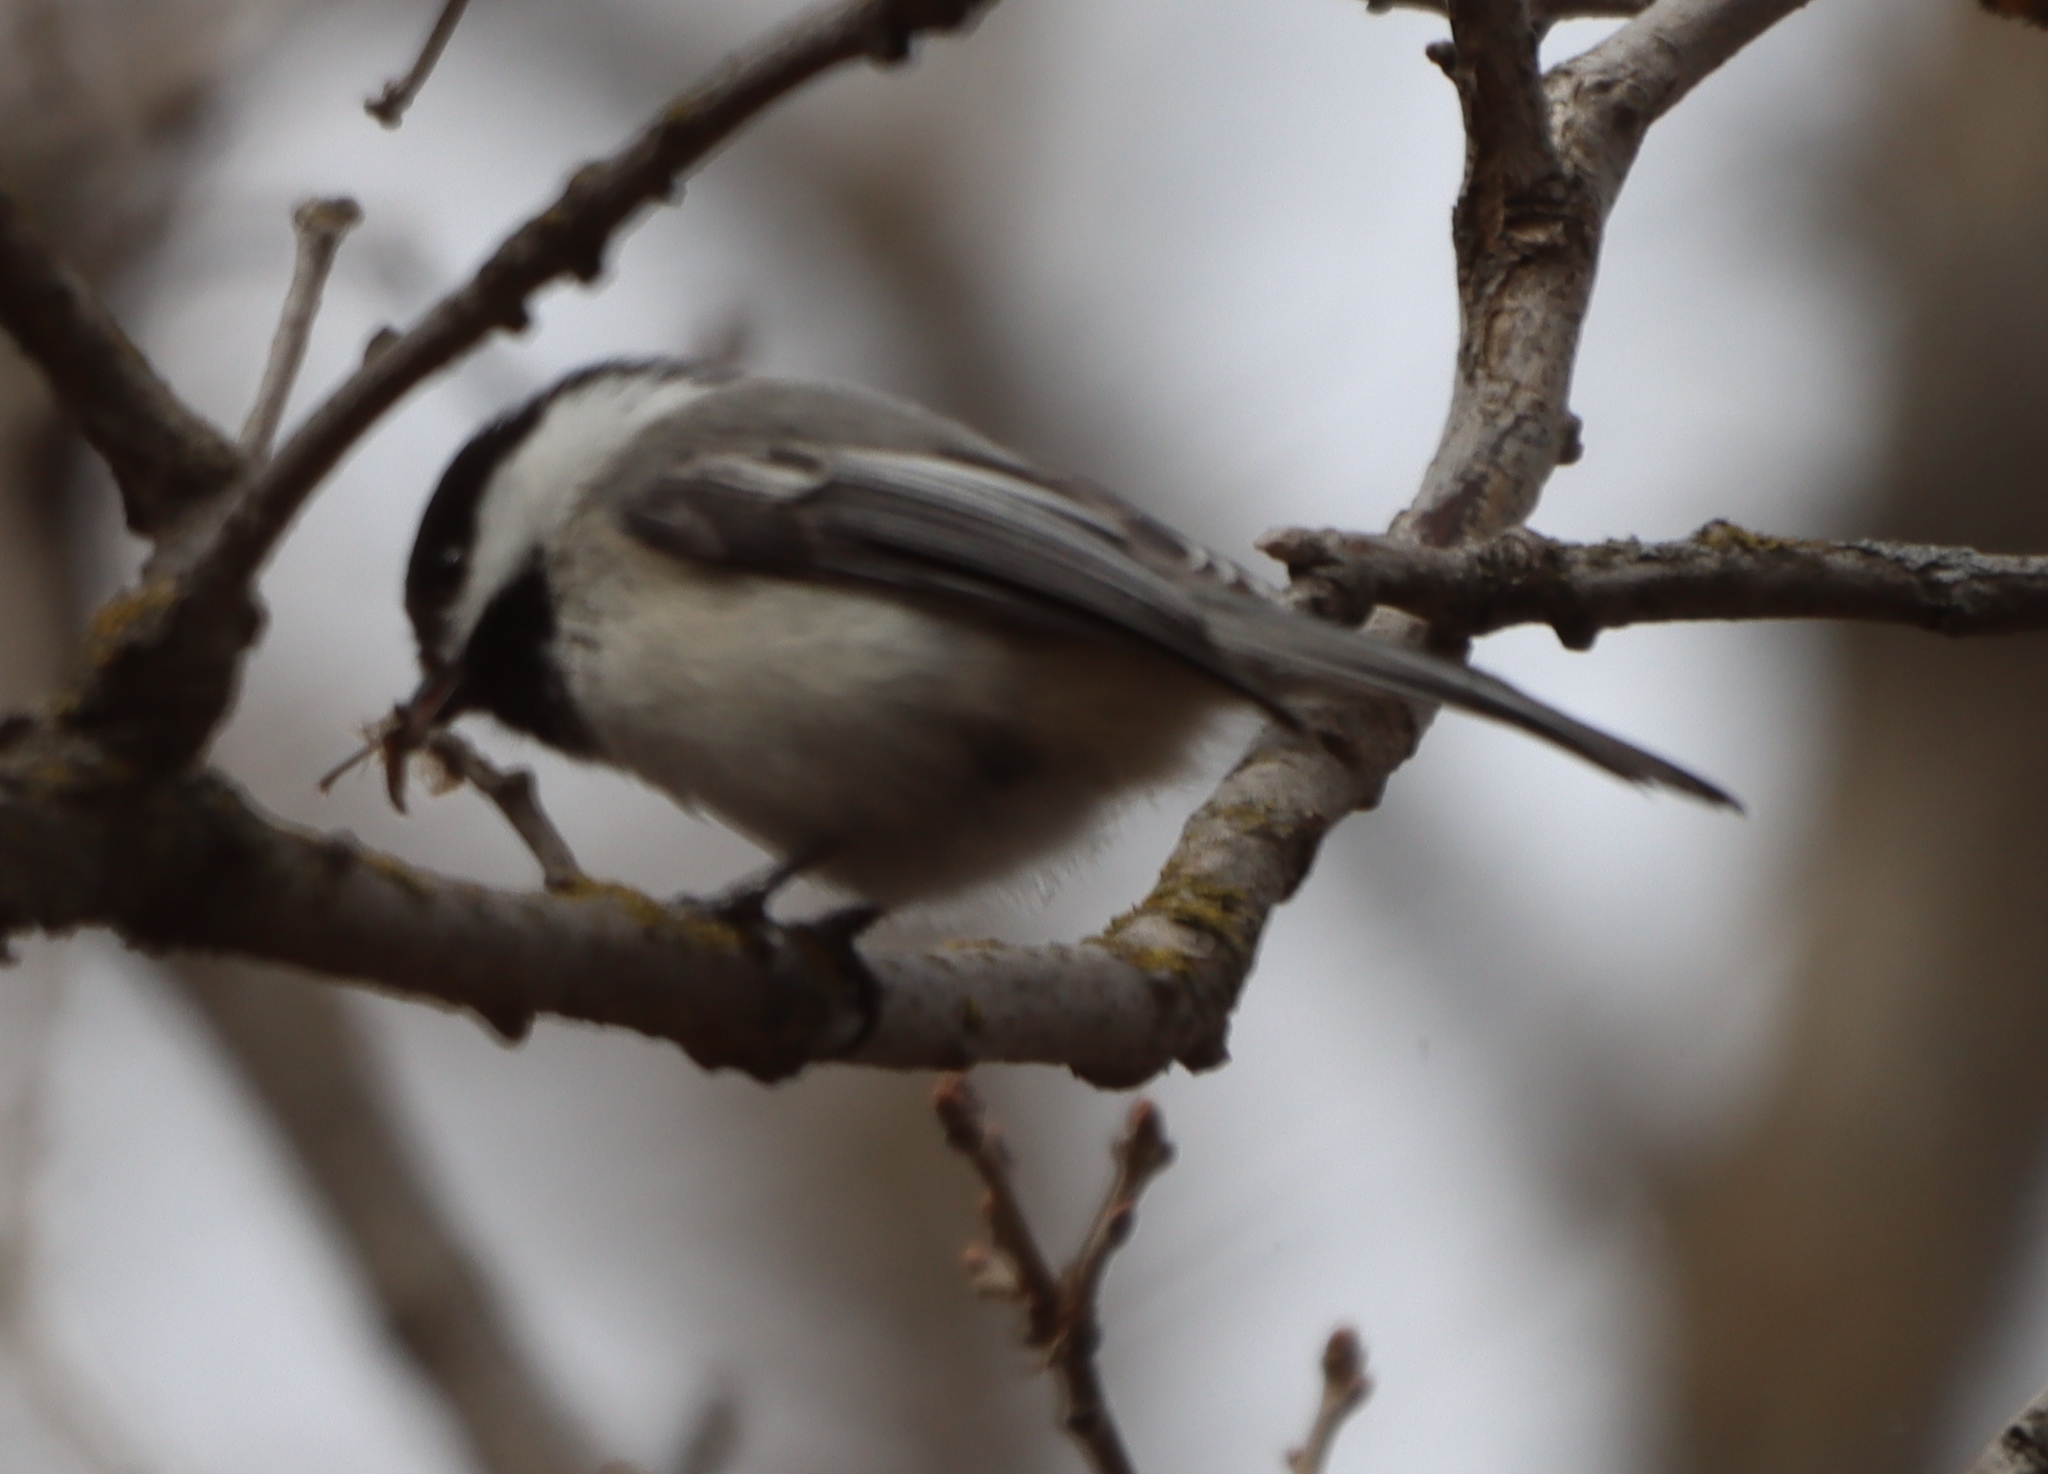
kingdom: Animalia
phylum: Chordata
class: Aves
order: Passeriformes
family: Paridae
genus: Poecile
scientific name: Poecile atricapillus
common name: Black-capped chickadee
